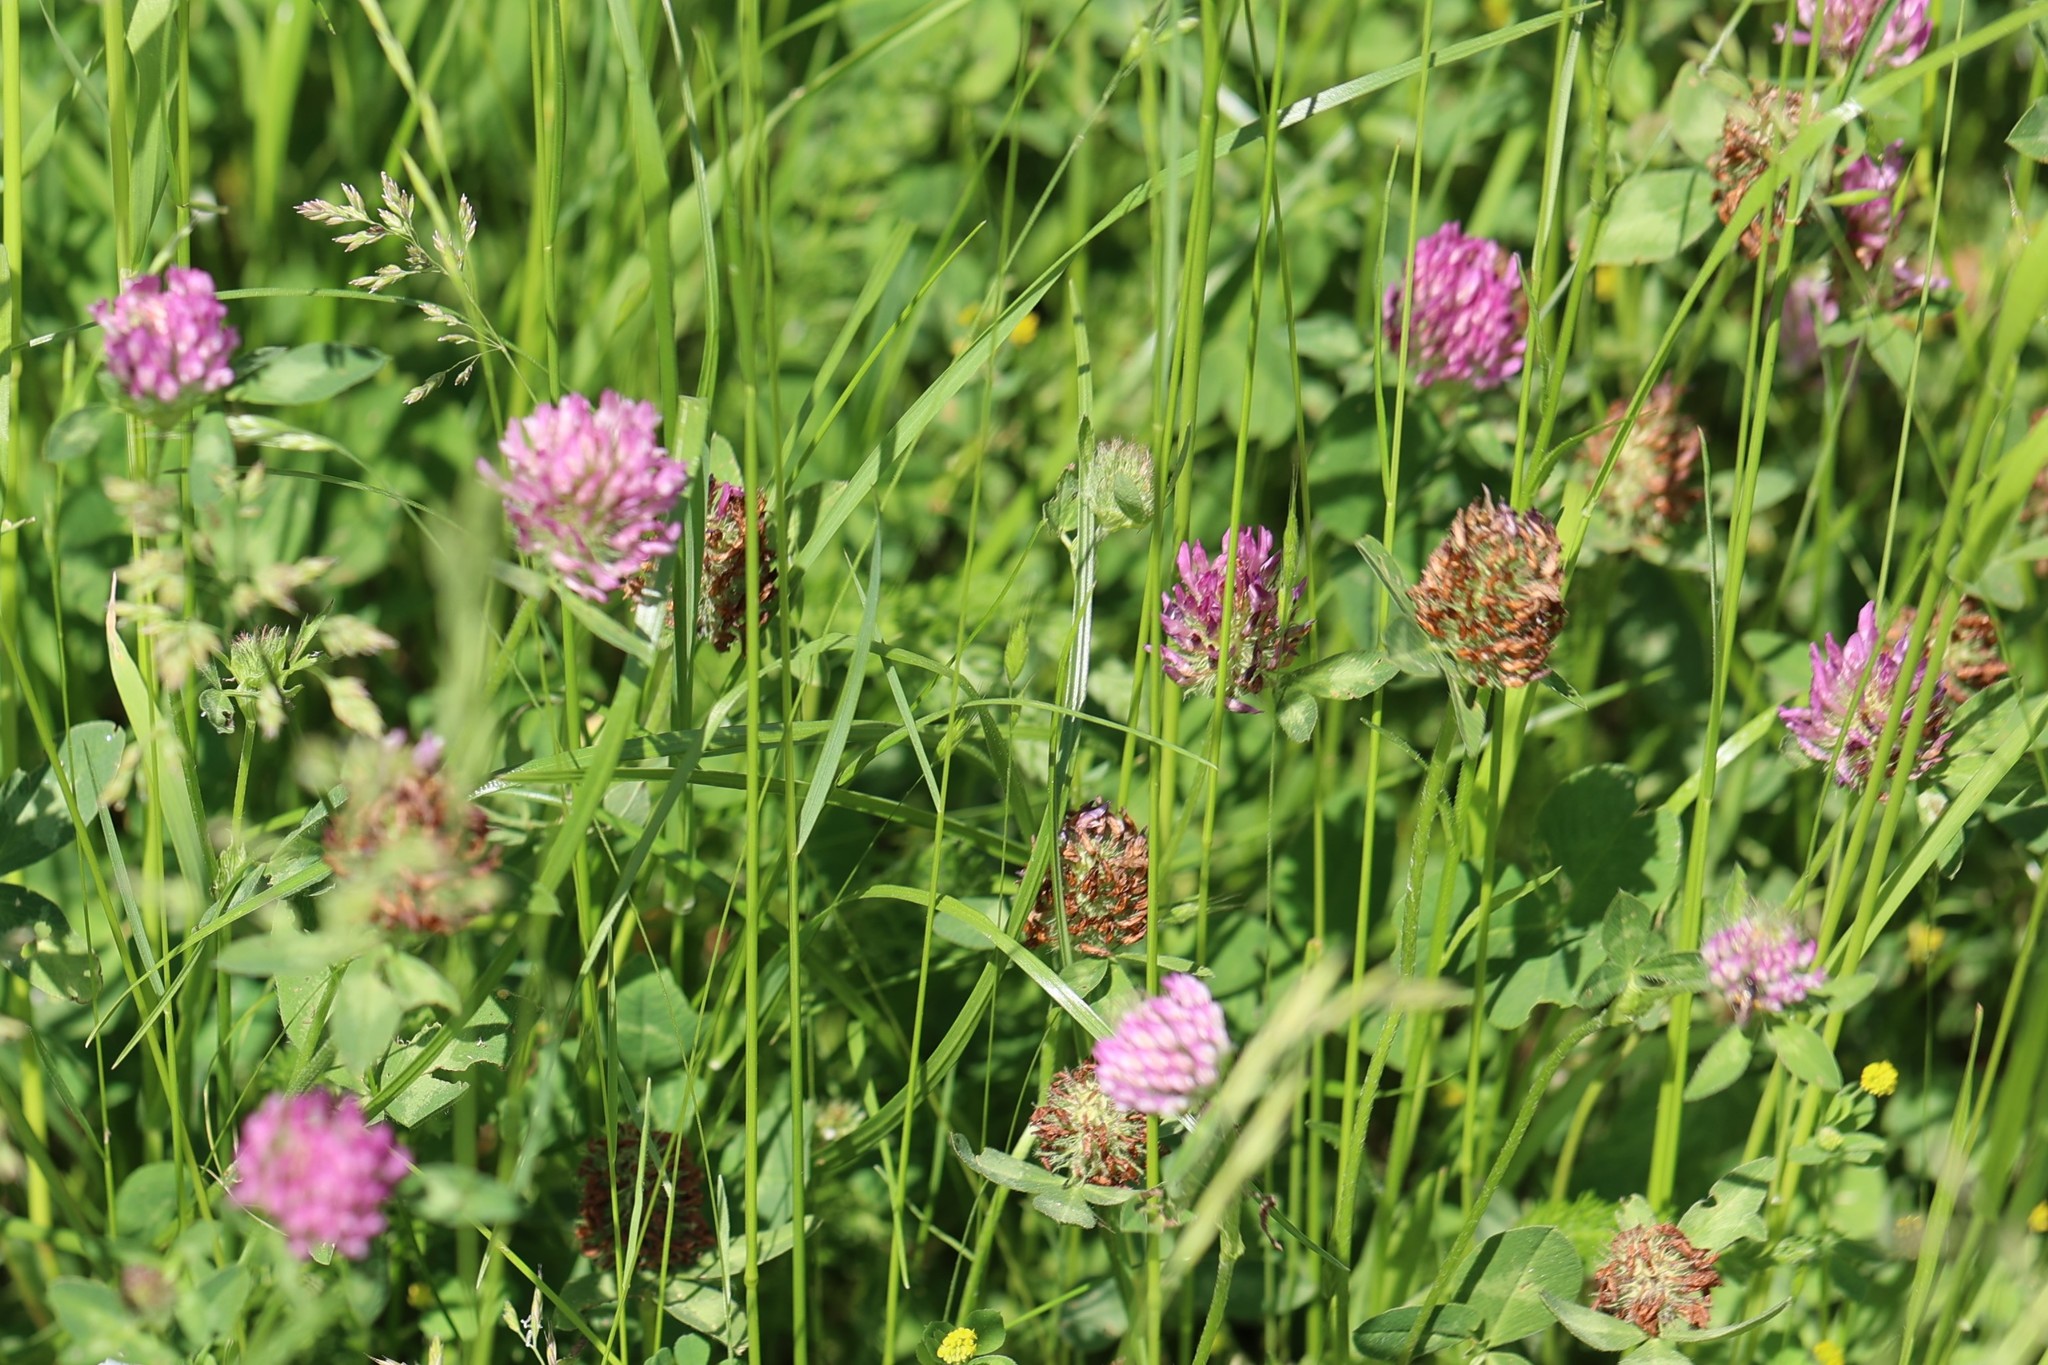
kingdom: Plantae
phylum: Tracheophyta
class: Magnoliopsida
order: Fabales
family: Fabaceae
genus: Trifolium
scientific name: Trifolium pratense
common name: Red clover
